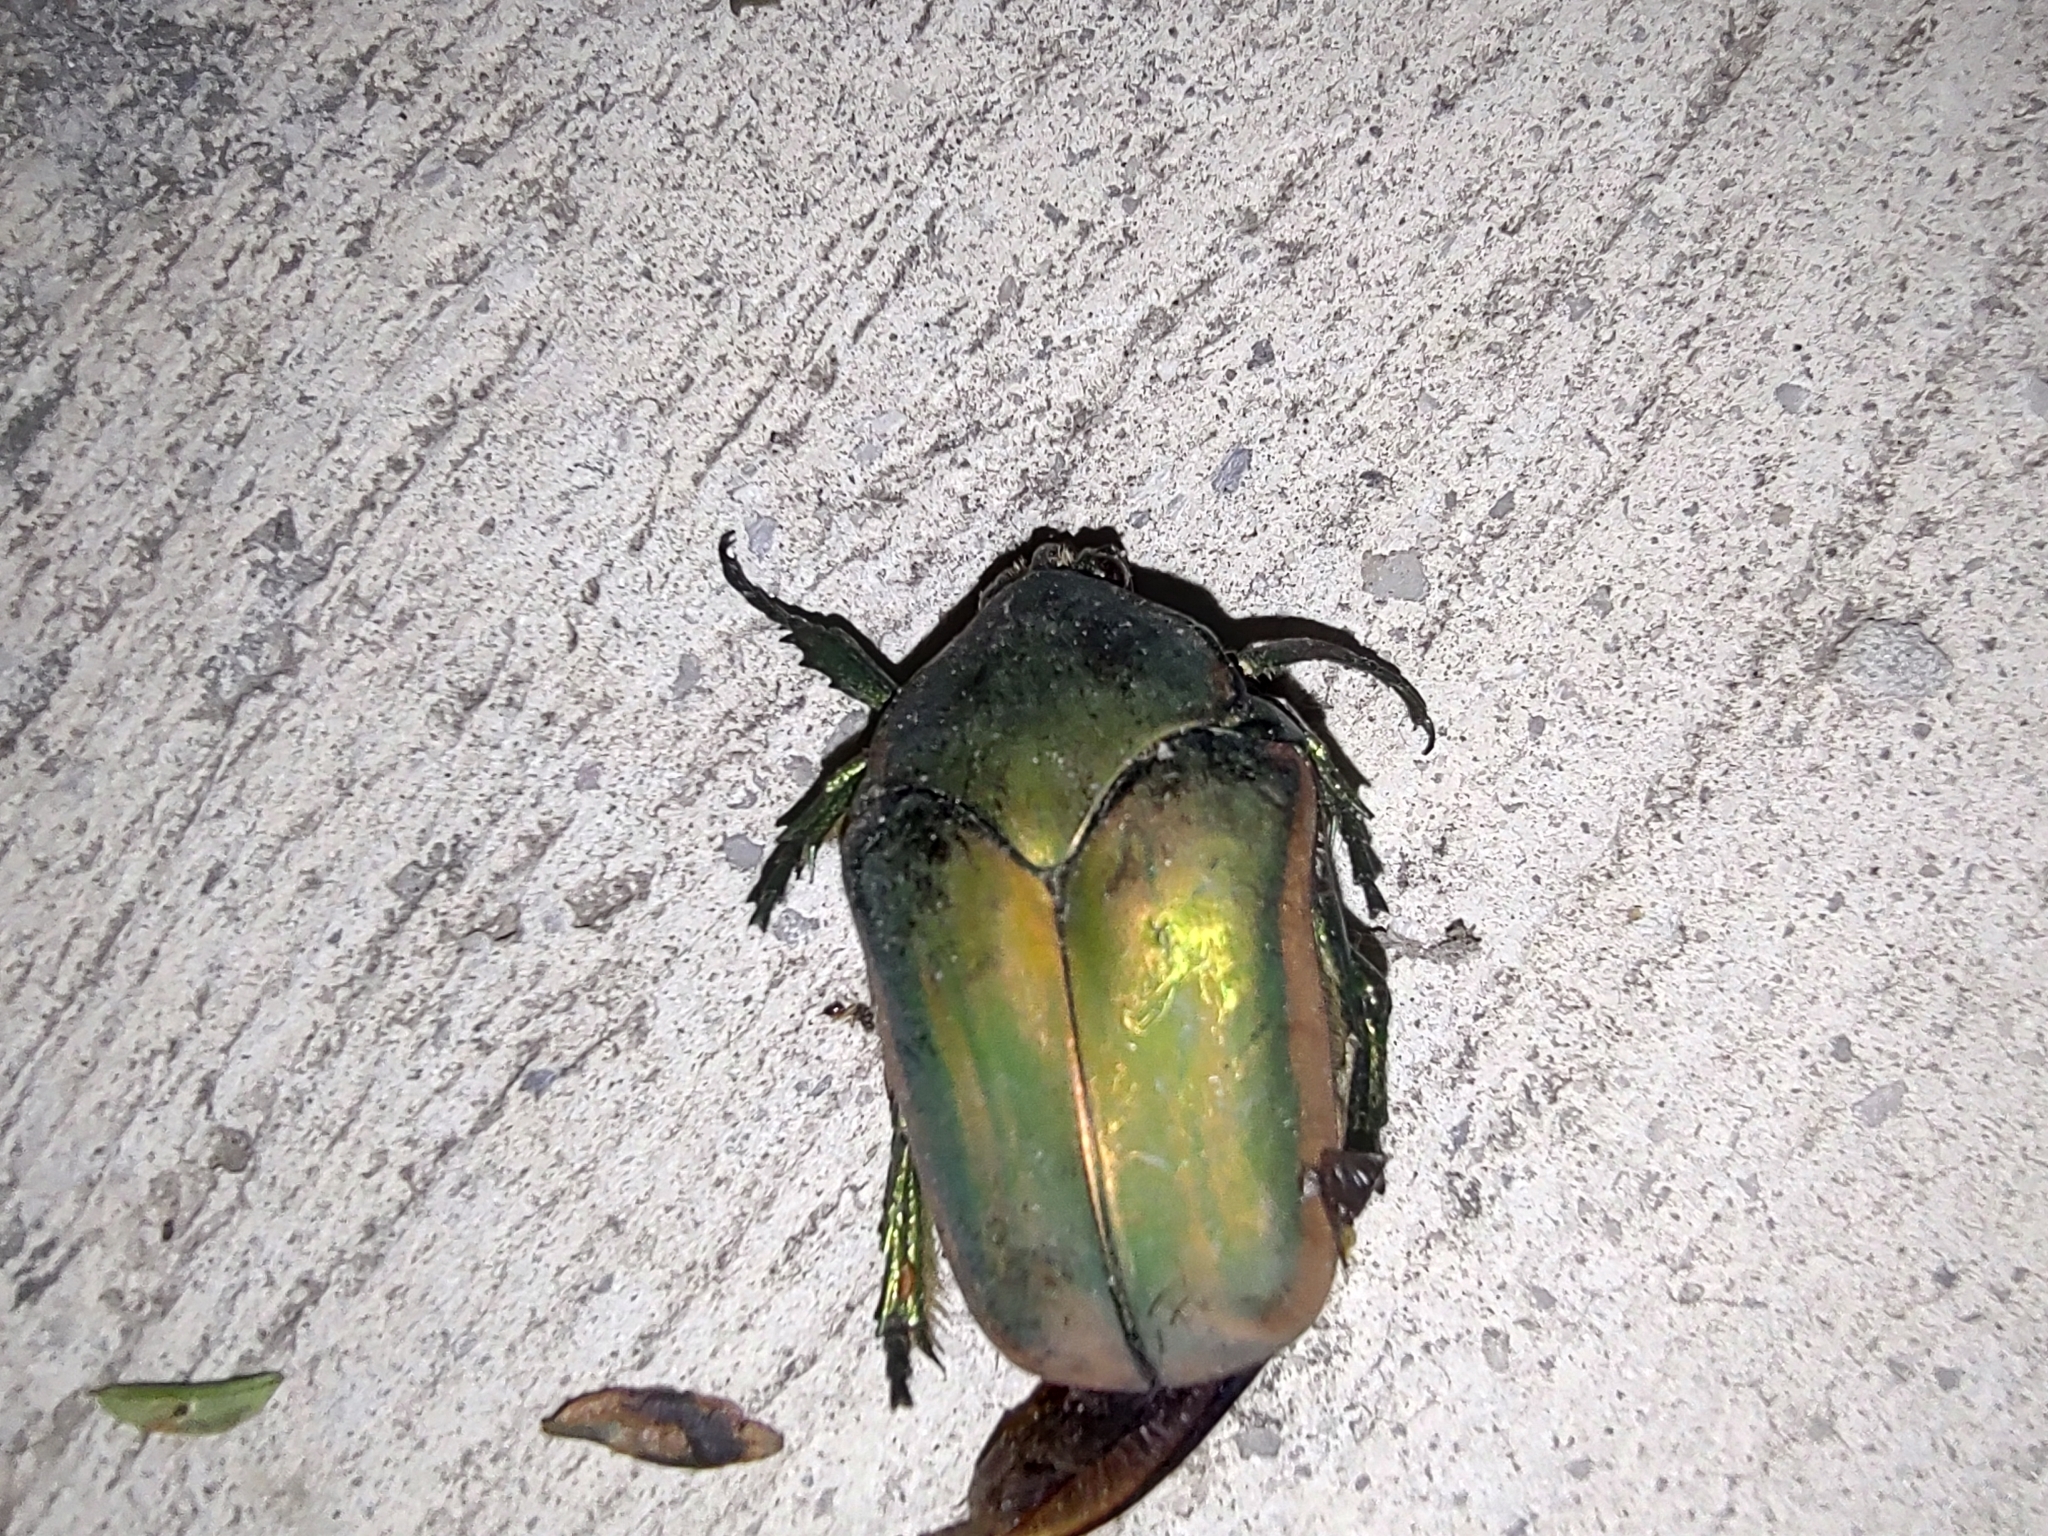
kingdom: Animalia
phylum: Arthropoda
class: Insecta
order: Coleoptera
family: Scarabaeidae
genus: Cotinis
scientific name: Cotinis mutabilis
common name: Figeater beetle
